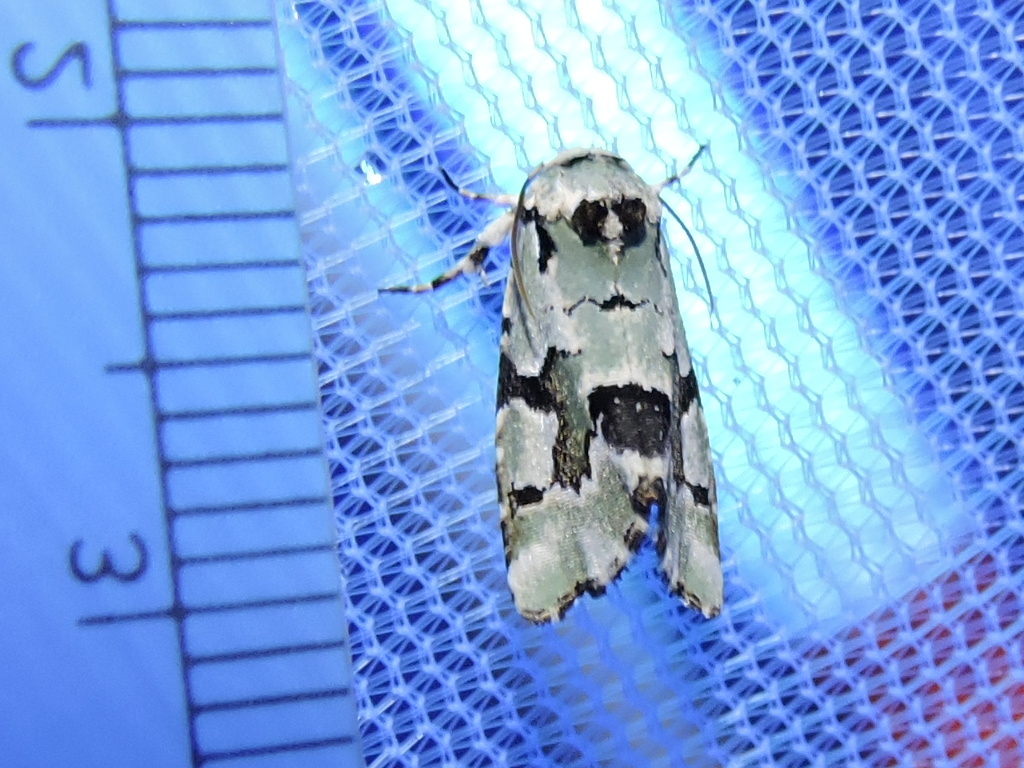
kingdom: Animalia
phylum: Arthropoda
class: Insecta
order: Lepidoptera
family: Noctuidae
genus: Emarginea
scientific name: Emarginea percara
